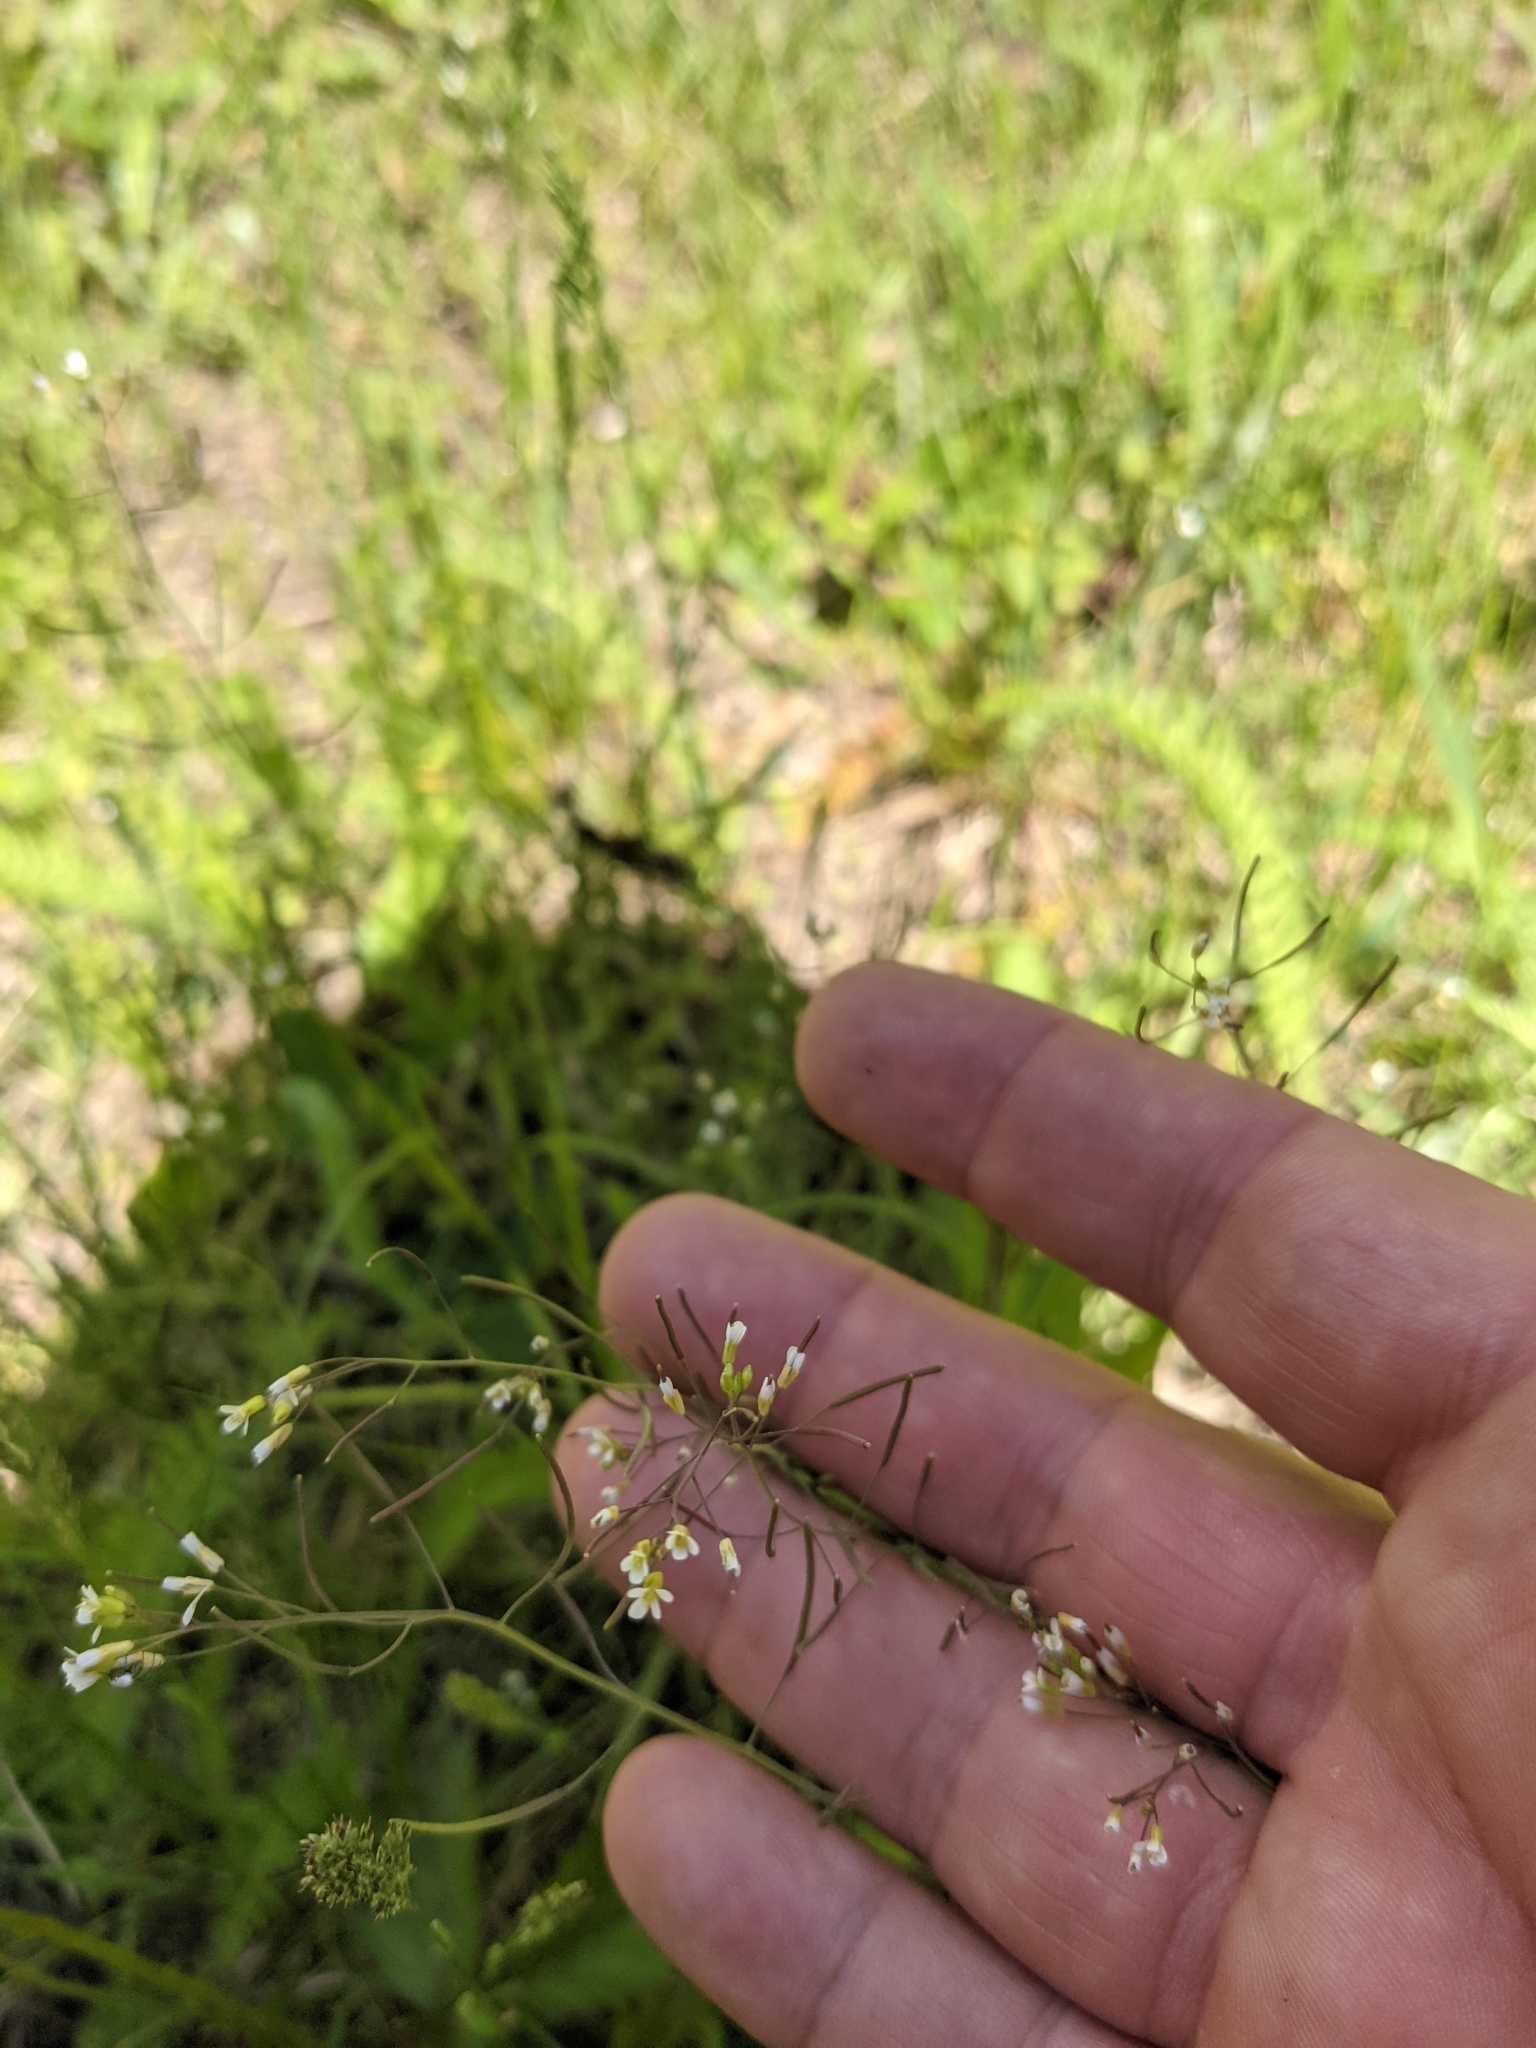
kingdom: Plantae
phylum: Tracheophyta
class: Magnoliopsida
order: Brassicales
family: Brassicaceae
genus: Arabidopsis
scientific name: Arabidopsis thaliana
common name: Thale cress
